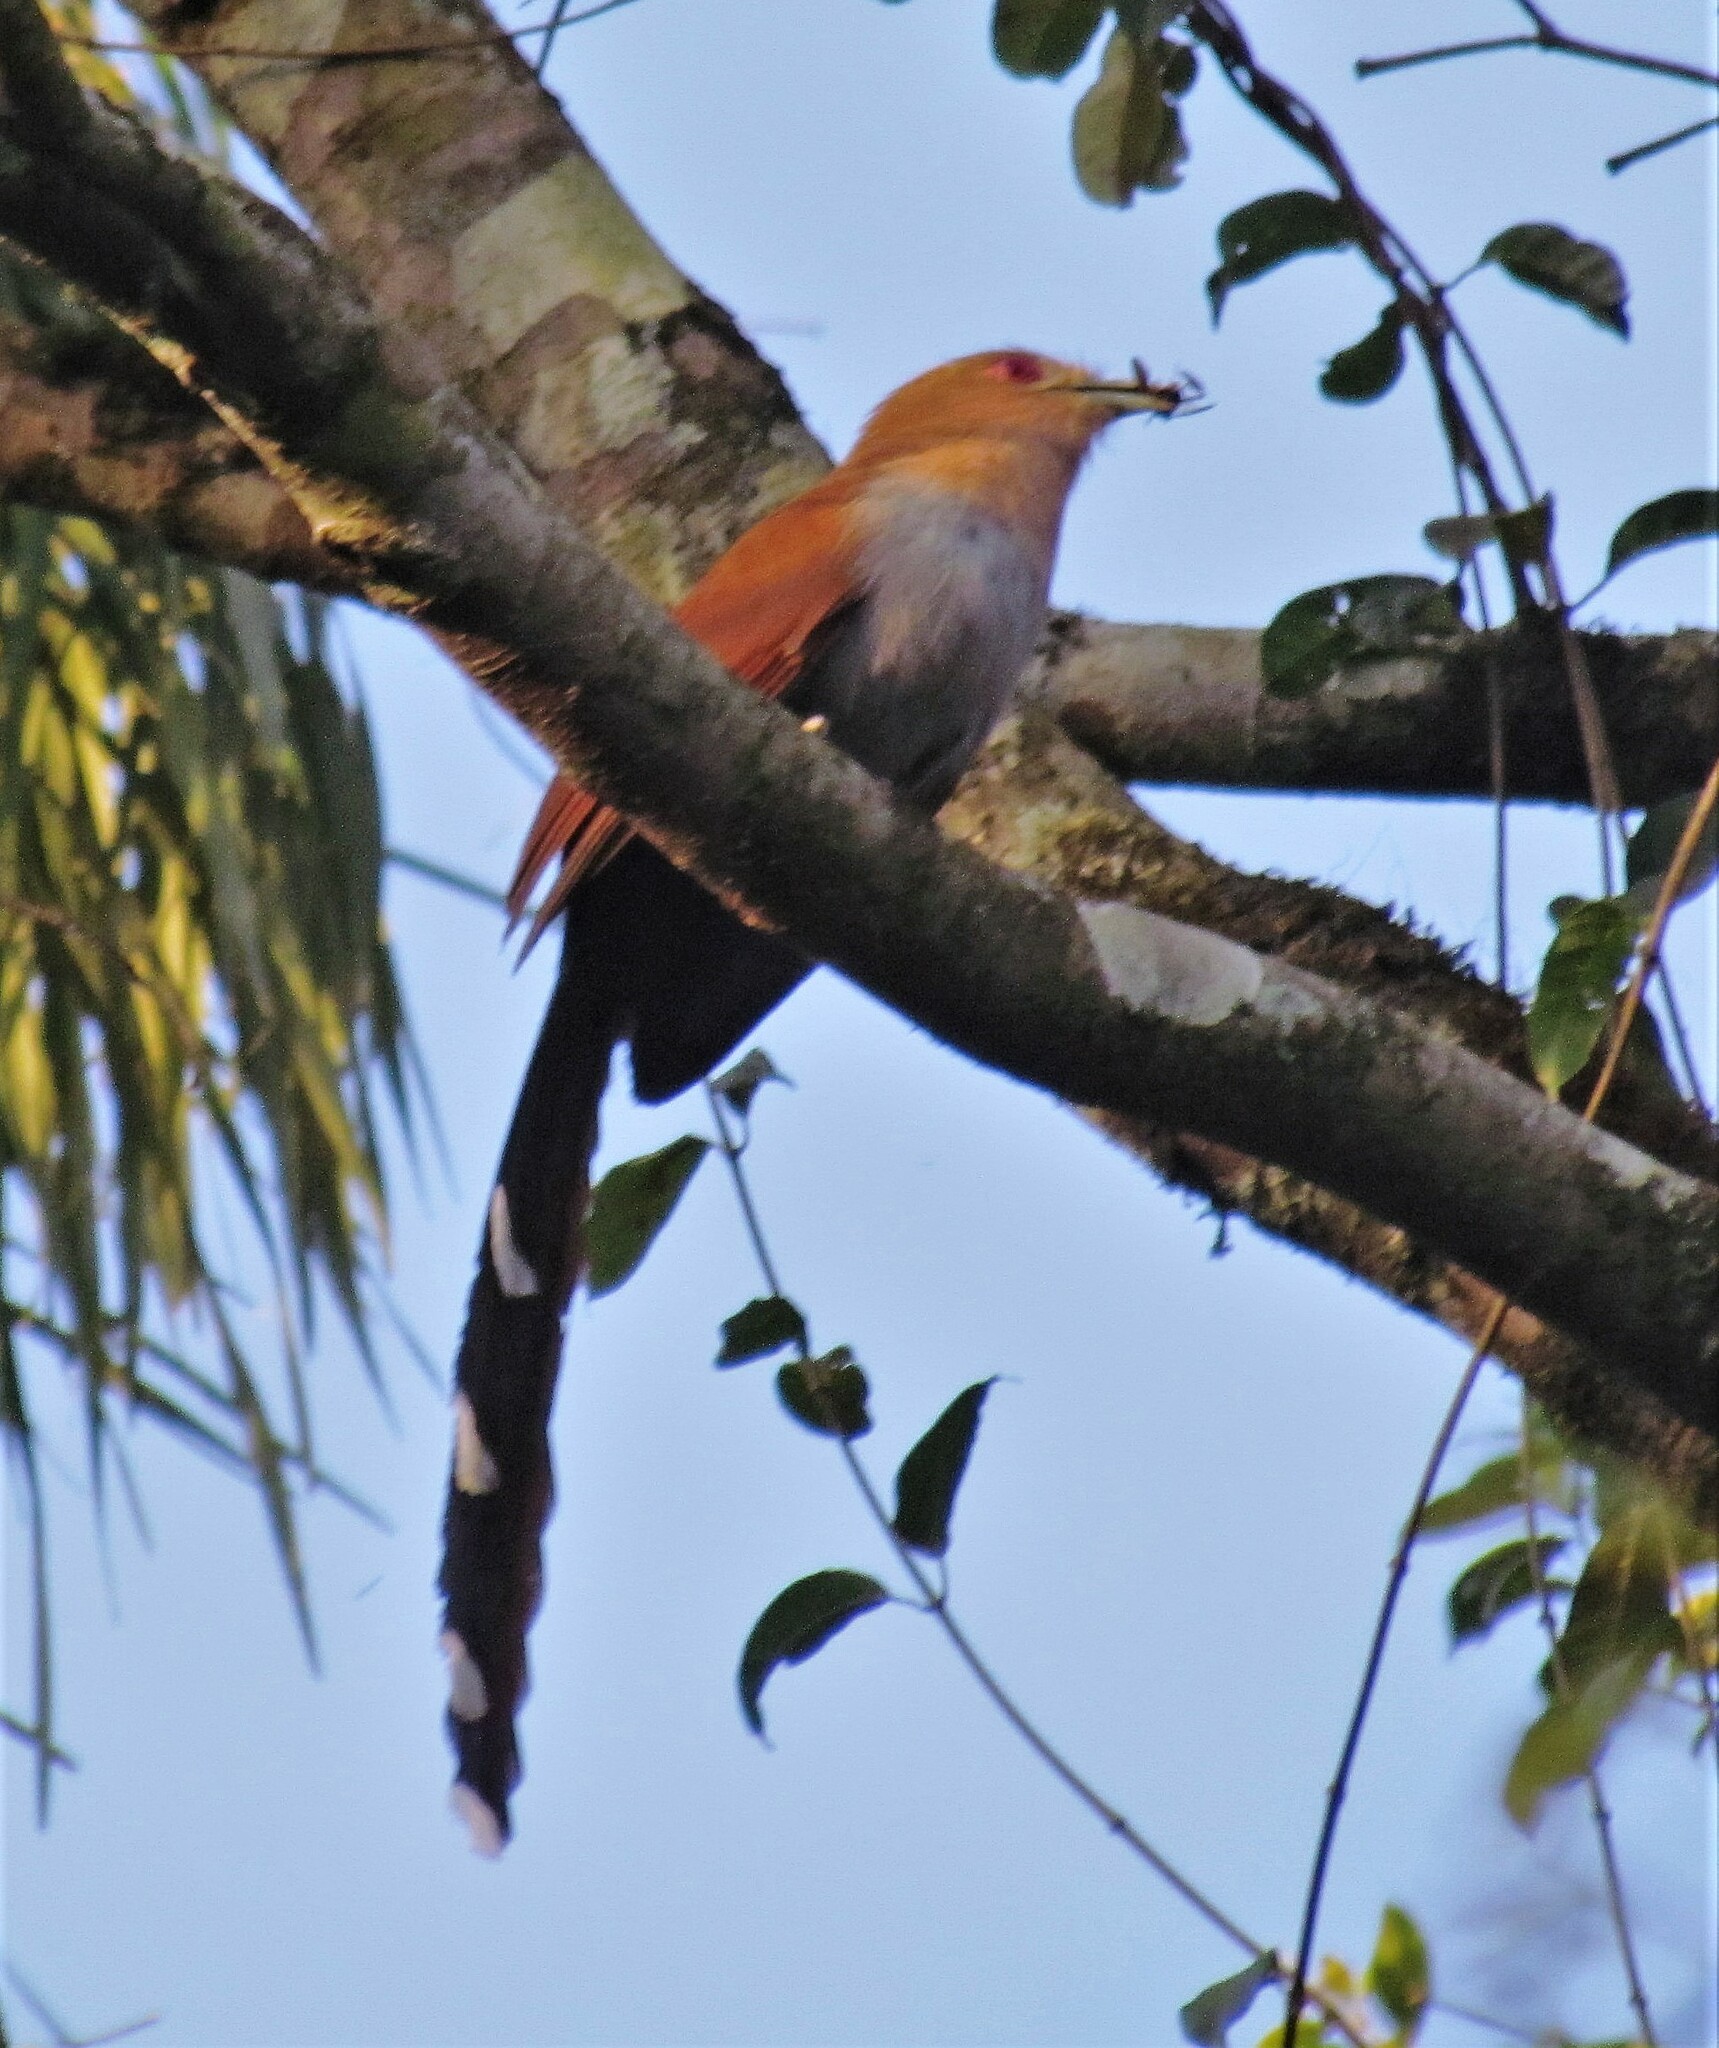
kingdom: Animalia
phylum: Chordata
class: Aves
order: Cuculiformes
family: Cuculidae
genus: Piaya
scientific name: Piaya cayana
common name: Squirrel cuckoo
